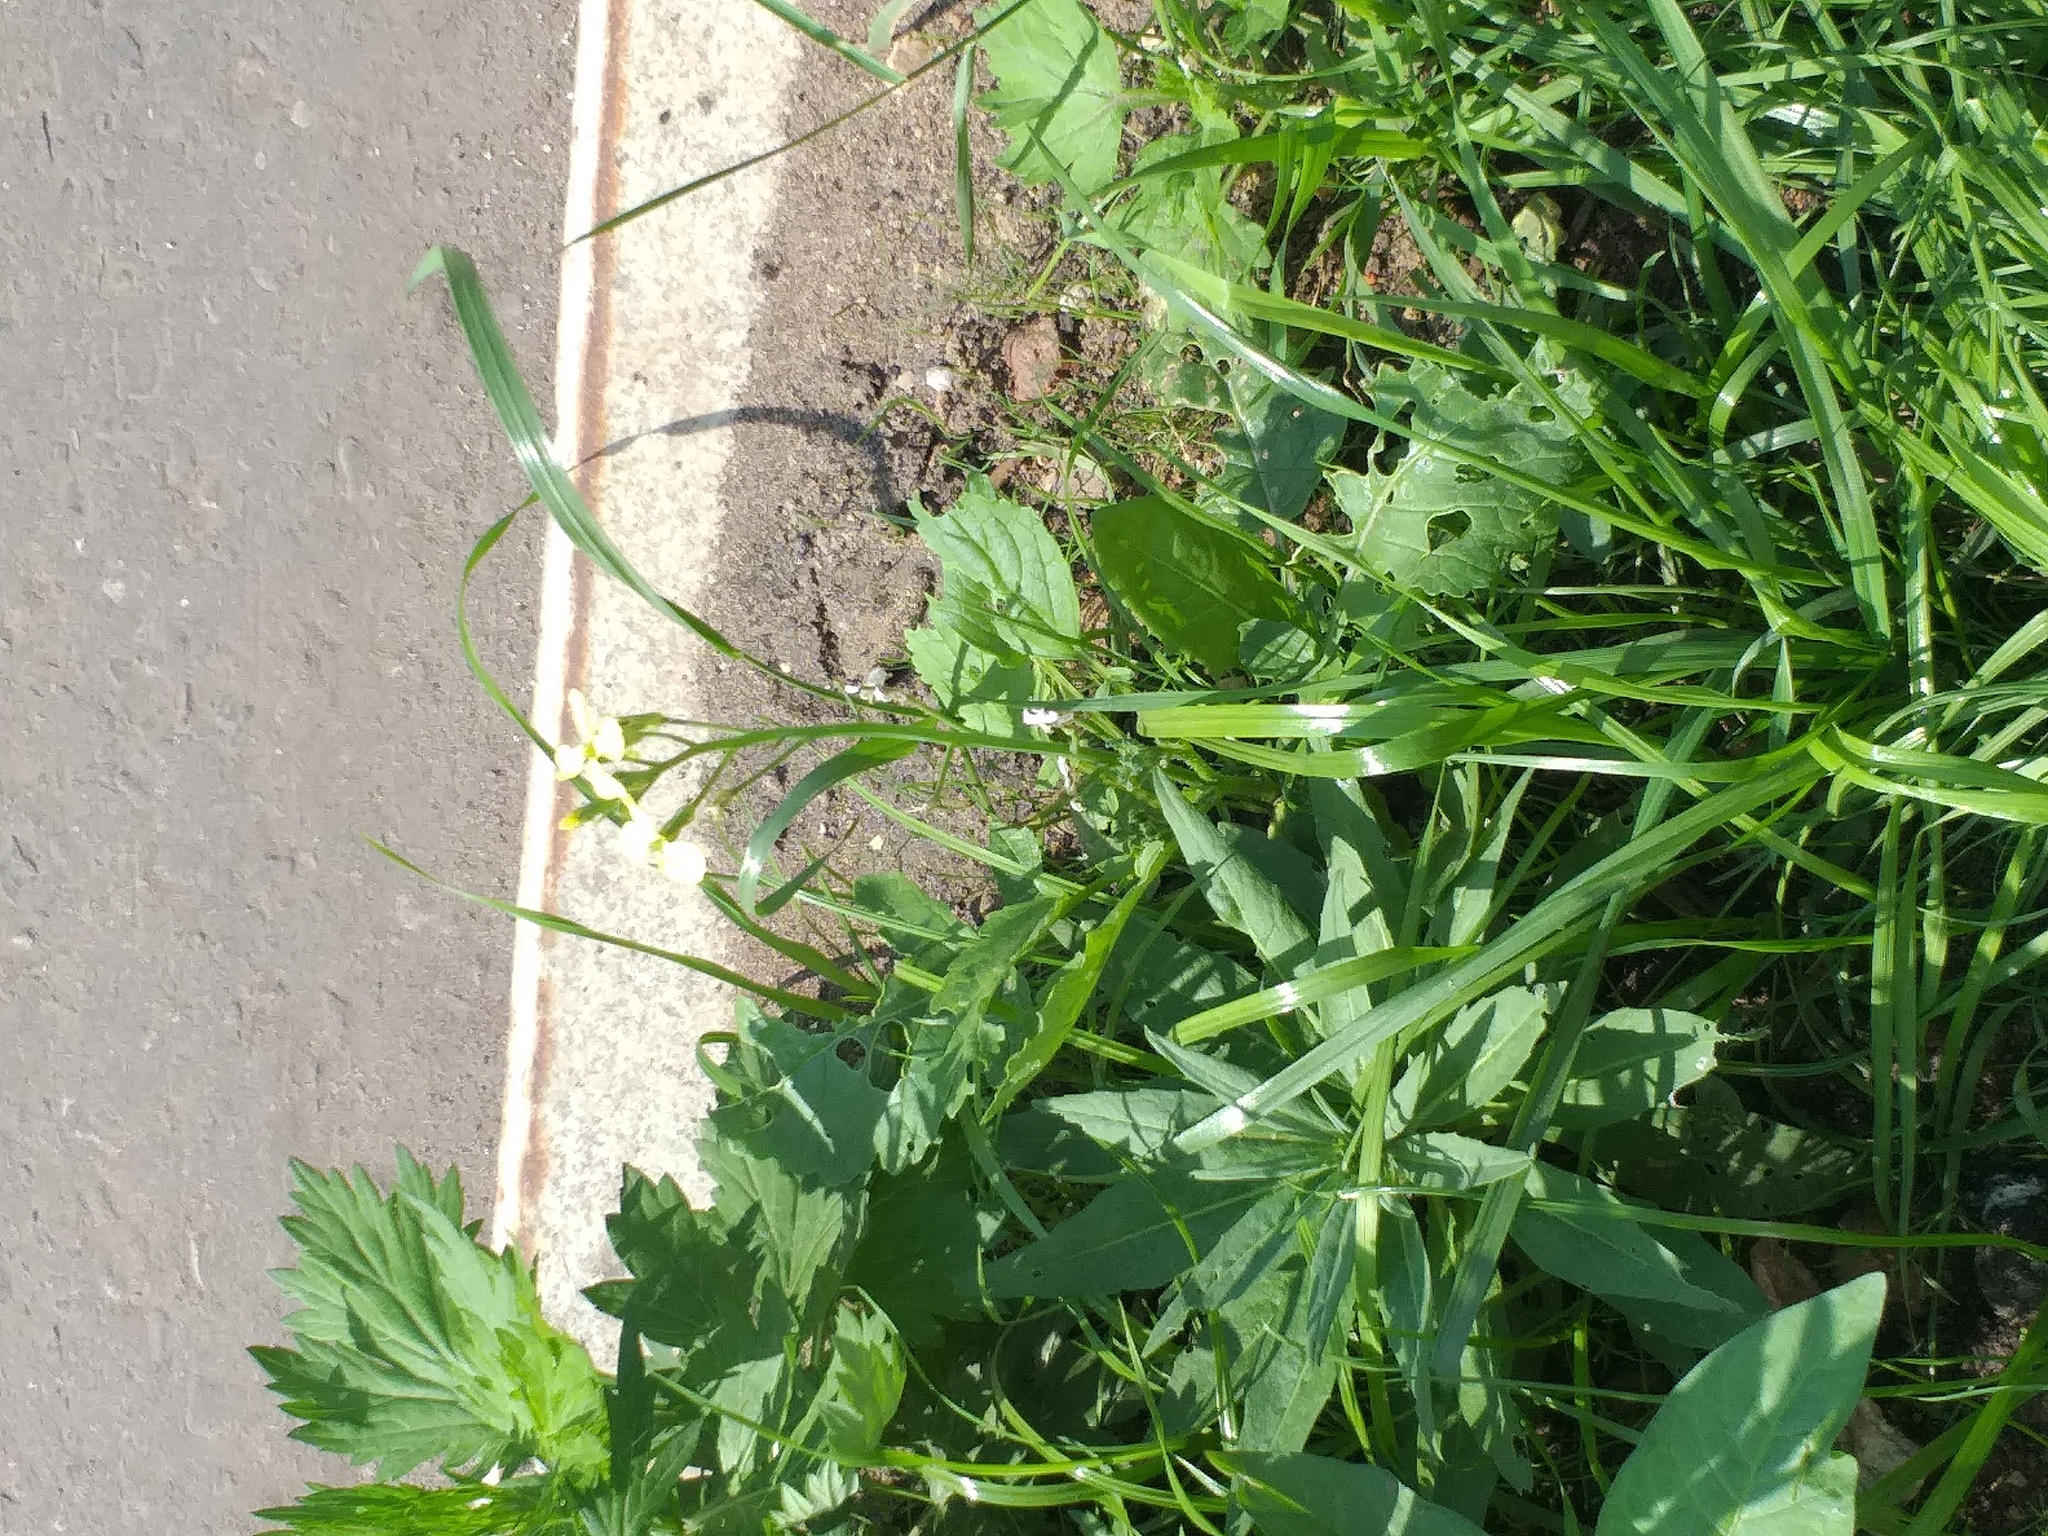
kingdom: Plantae
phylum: Tracheophyta
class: Magnoliopsida
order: Brassicales
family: Brassicaceae
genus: Raphanus
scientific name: Raphanus raphanistrum
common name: Wild radish
